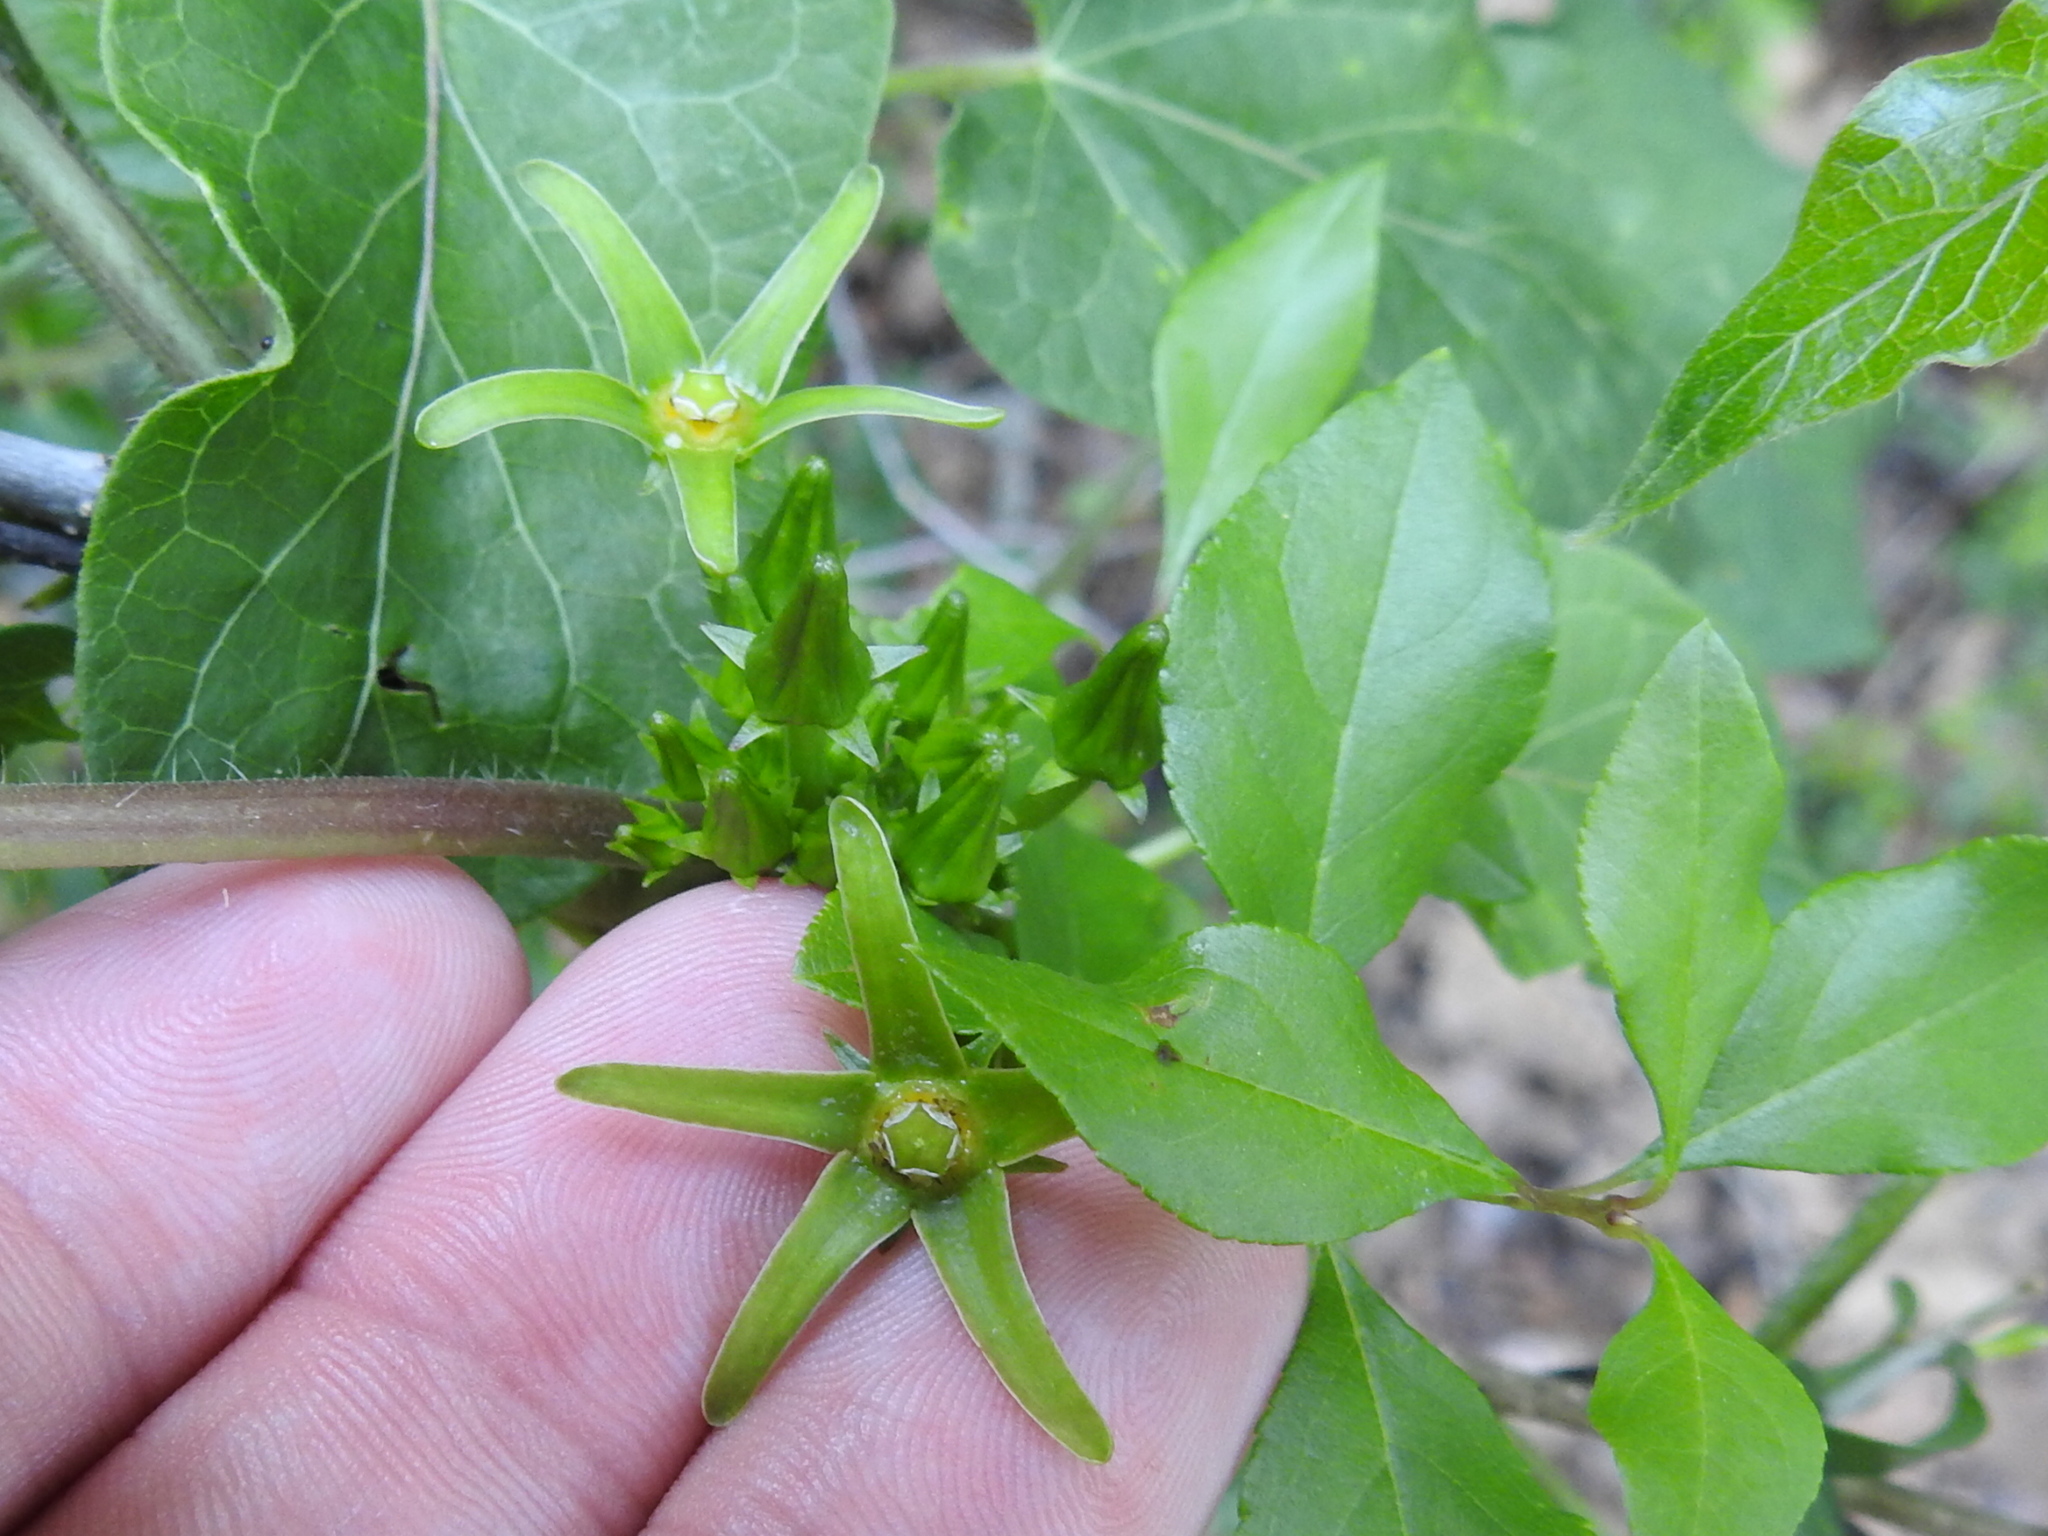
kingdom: Plantae
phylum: Tracheophyta
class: Magnoliopsida
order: Gentianales
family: Apocynaceae
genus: Gonolobus
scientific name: Gonolobus suberosus
